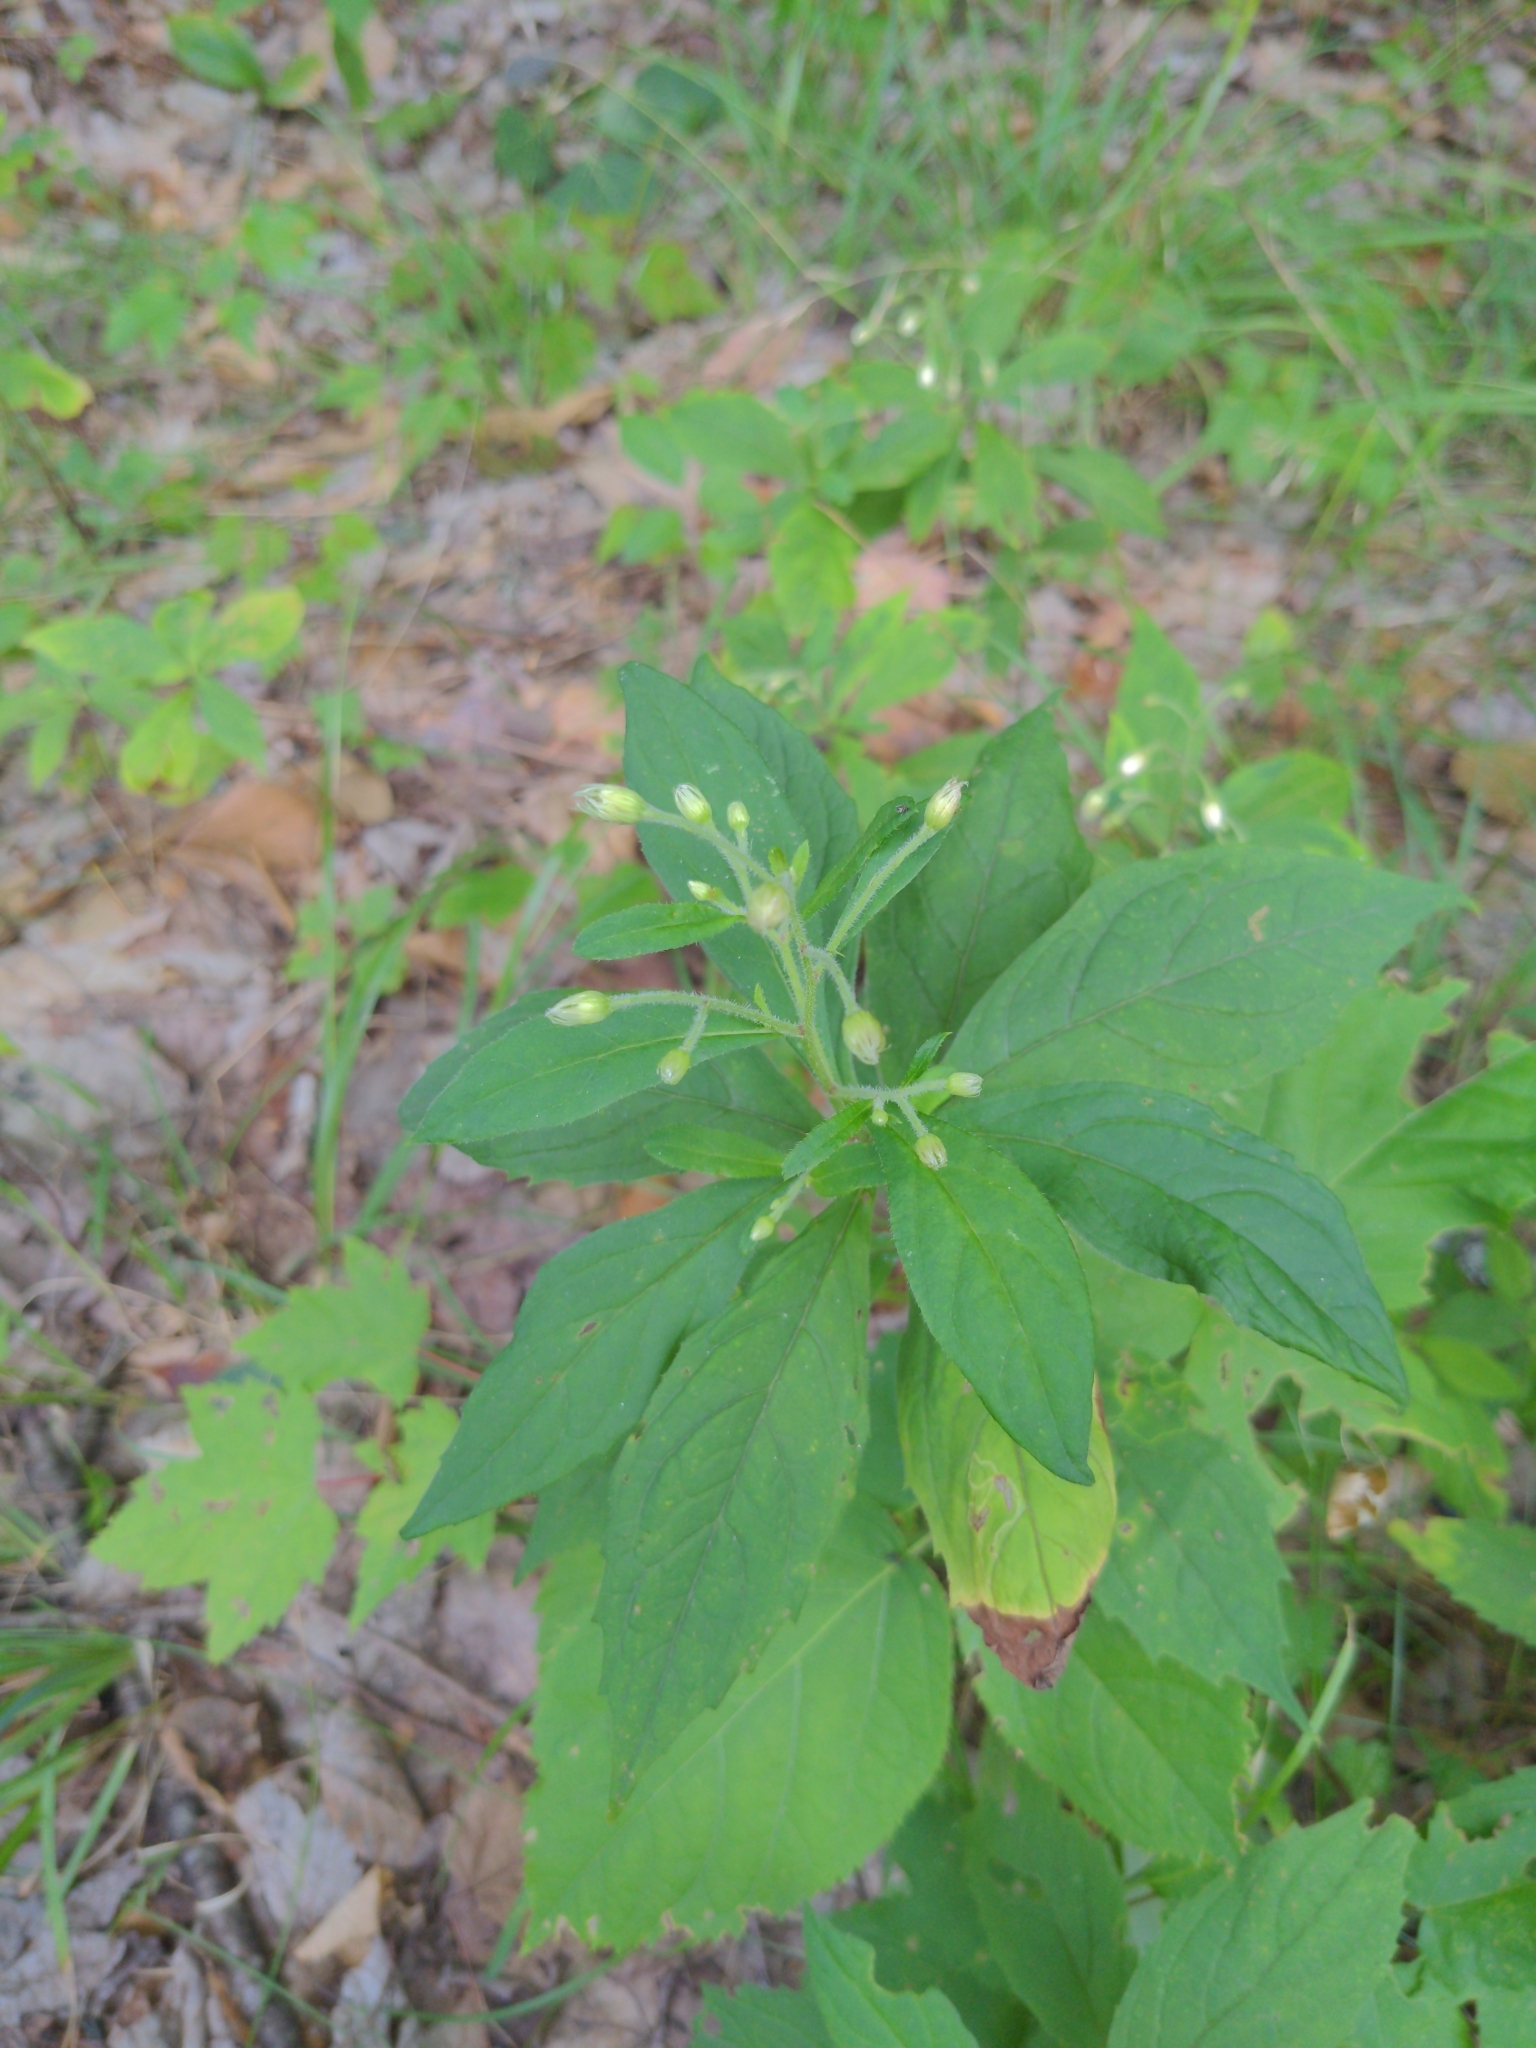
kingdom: Plantae
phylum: Tracheophyta
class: Magnoliopsida
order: Asterales
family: Asteraceae
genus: Oclemena
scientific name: Oclemena acuminata
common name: Mountain aster
